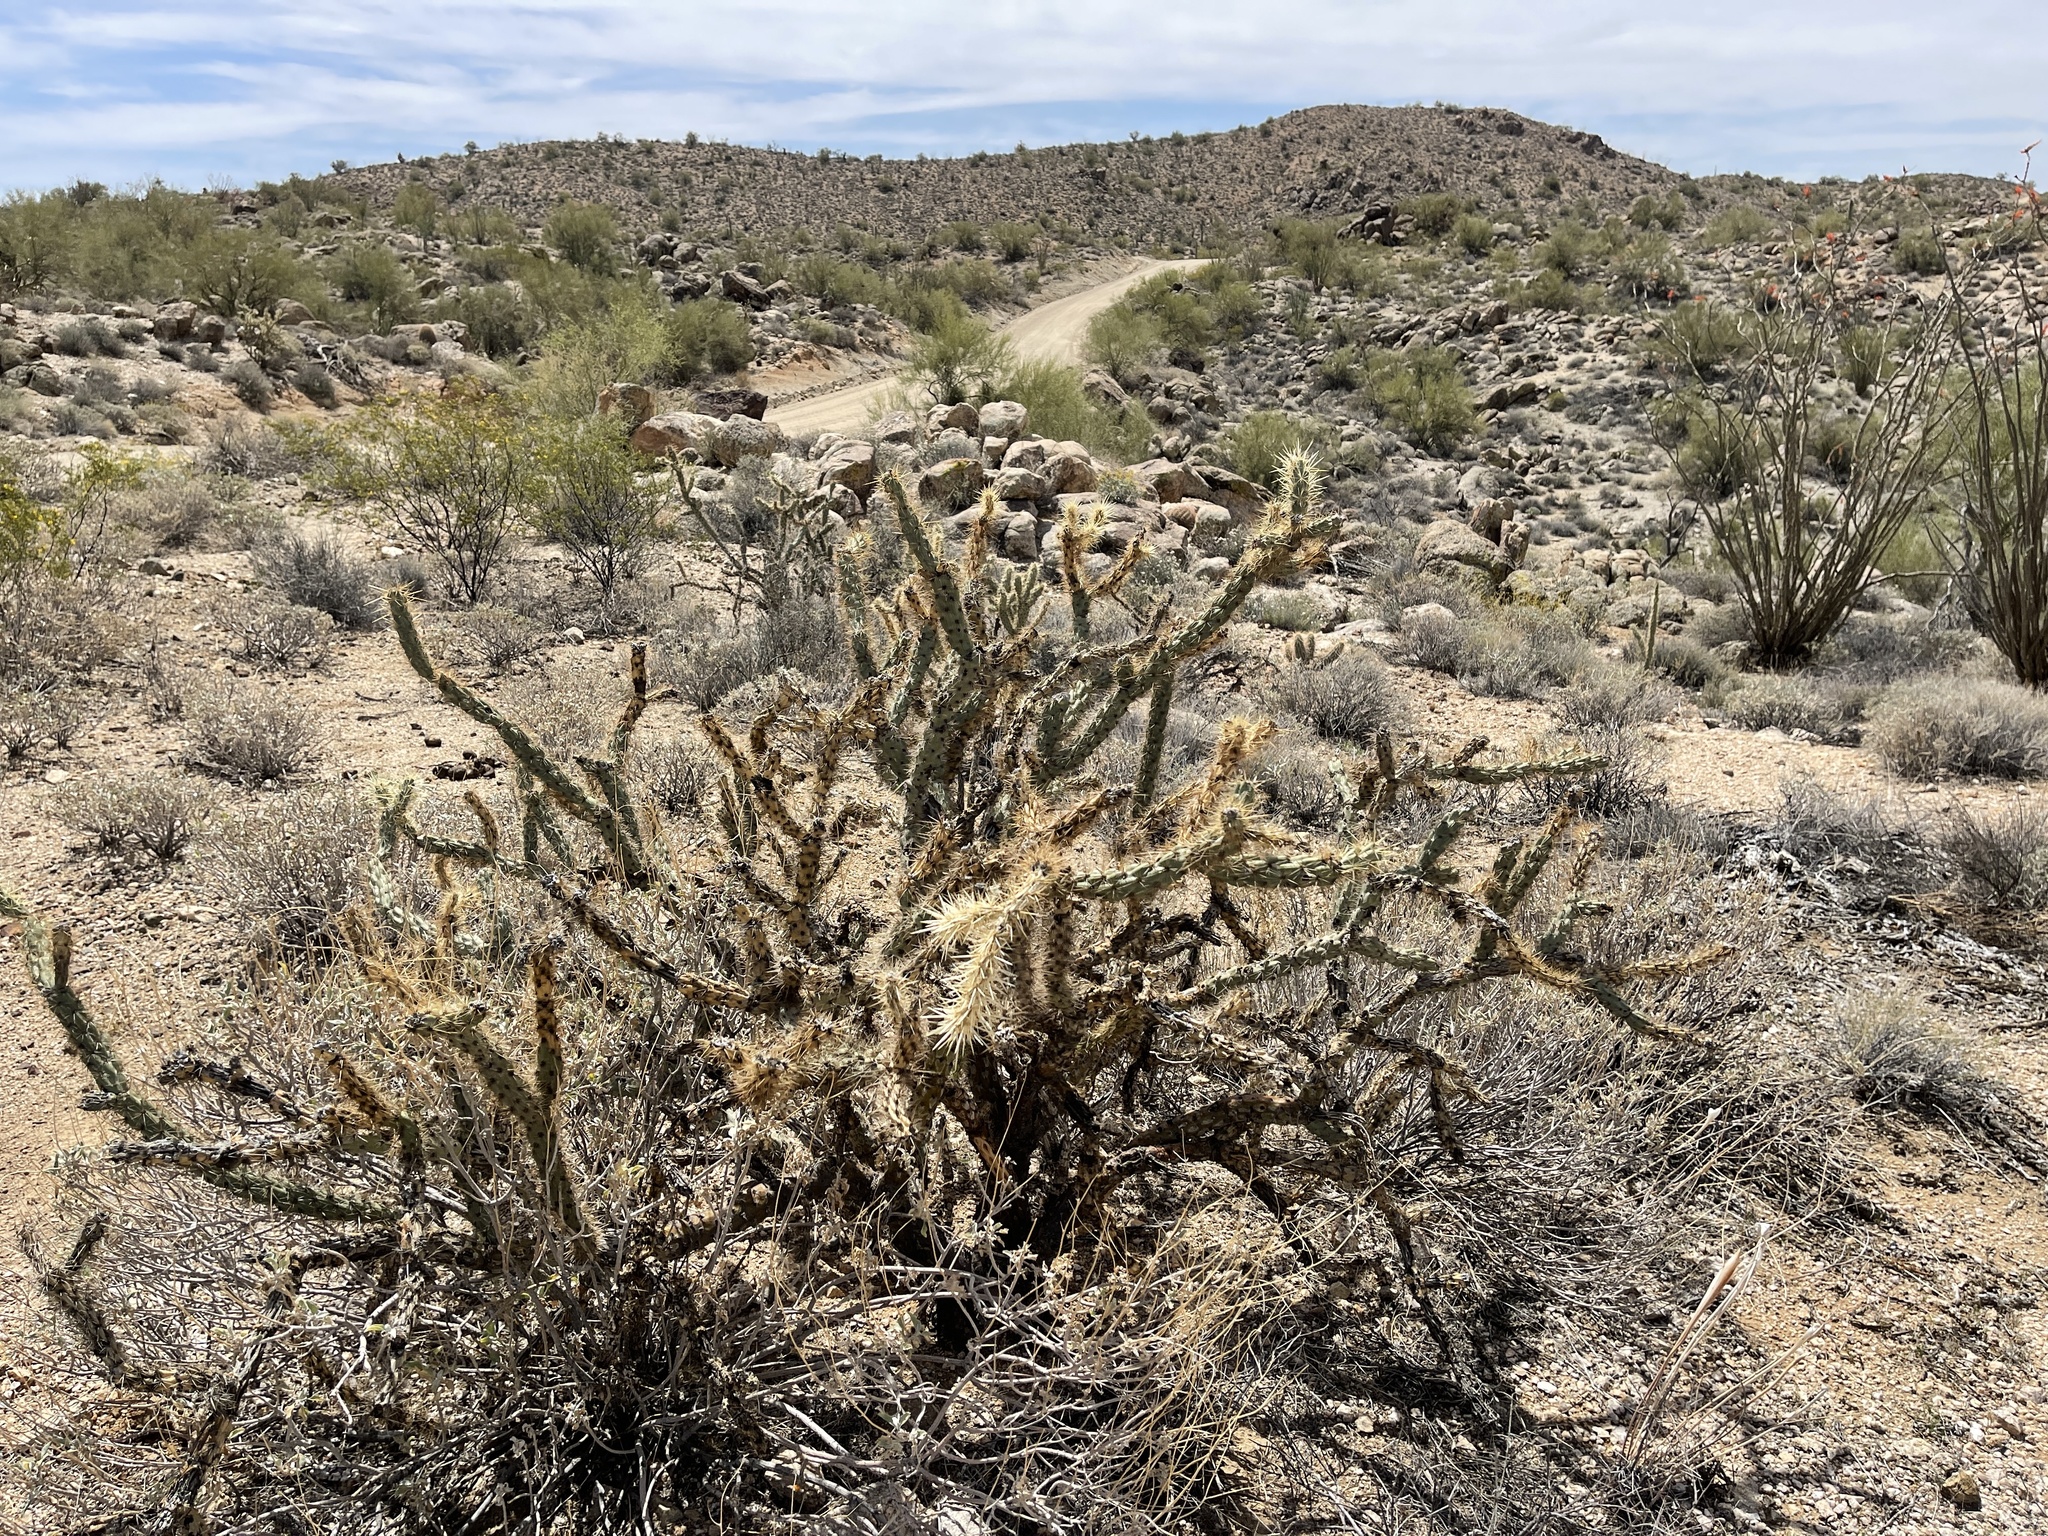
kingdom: Plantae
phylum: Tracheophyta
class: Magnoliopsida
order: Caryophyllales
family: Cactaceae
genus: Cylindropuntia
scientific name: Cylindropuntia acanthocarpa
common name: Buckhorn cholla
